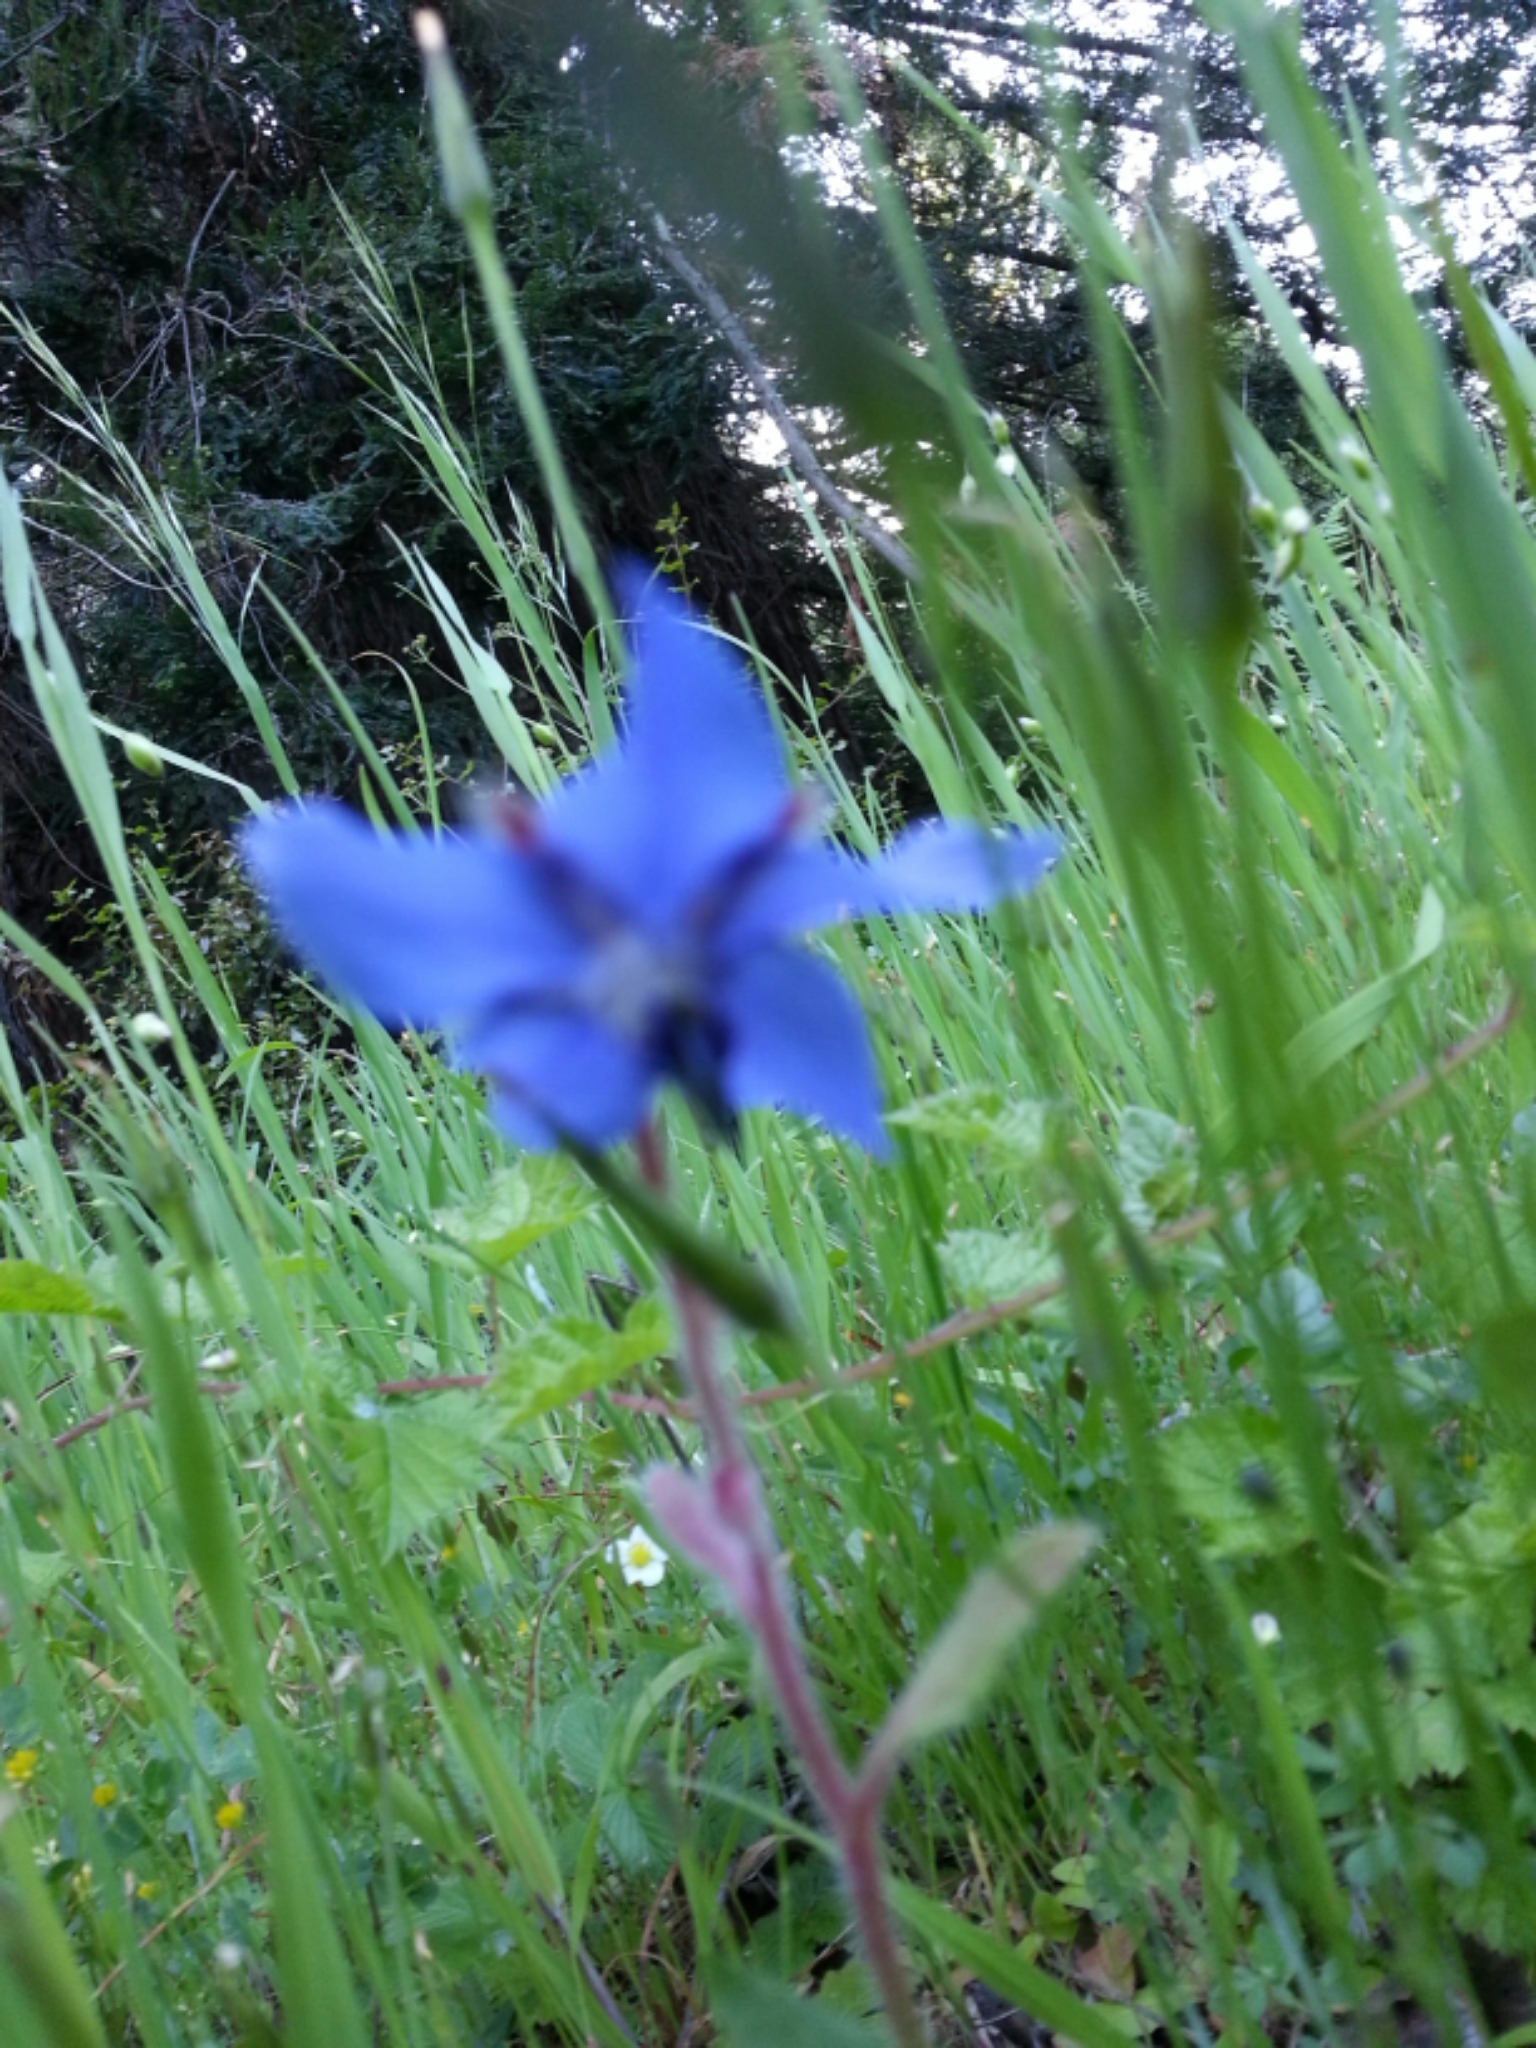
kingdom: Plantae
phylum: Tracheophyta
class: Magnoliopsida
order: Boraginales
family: Boraginaceae
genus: Borago
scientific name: Borago officinalis
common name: Borage
